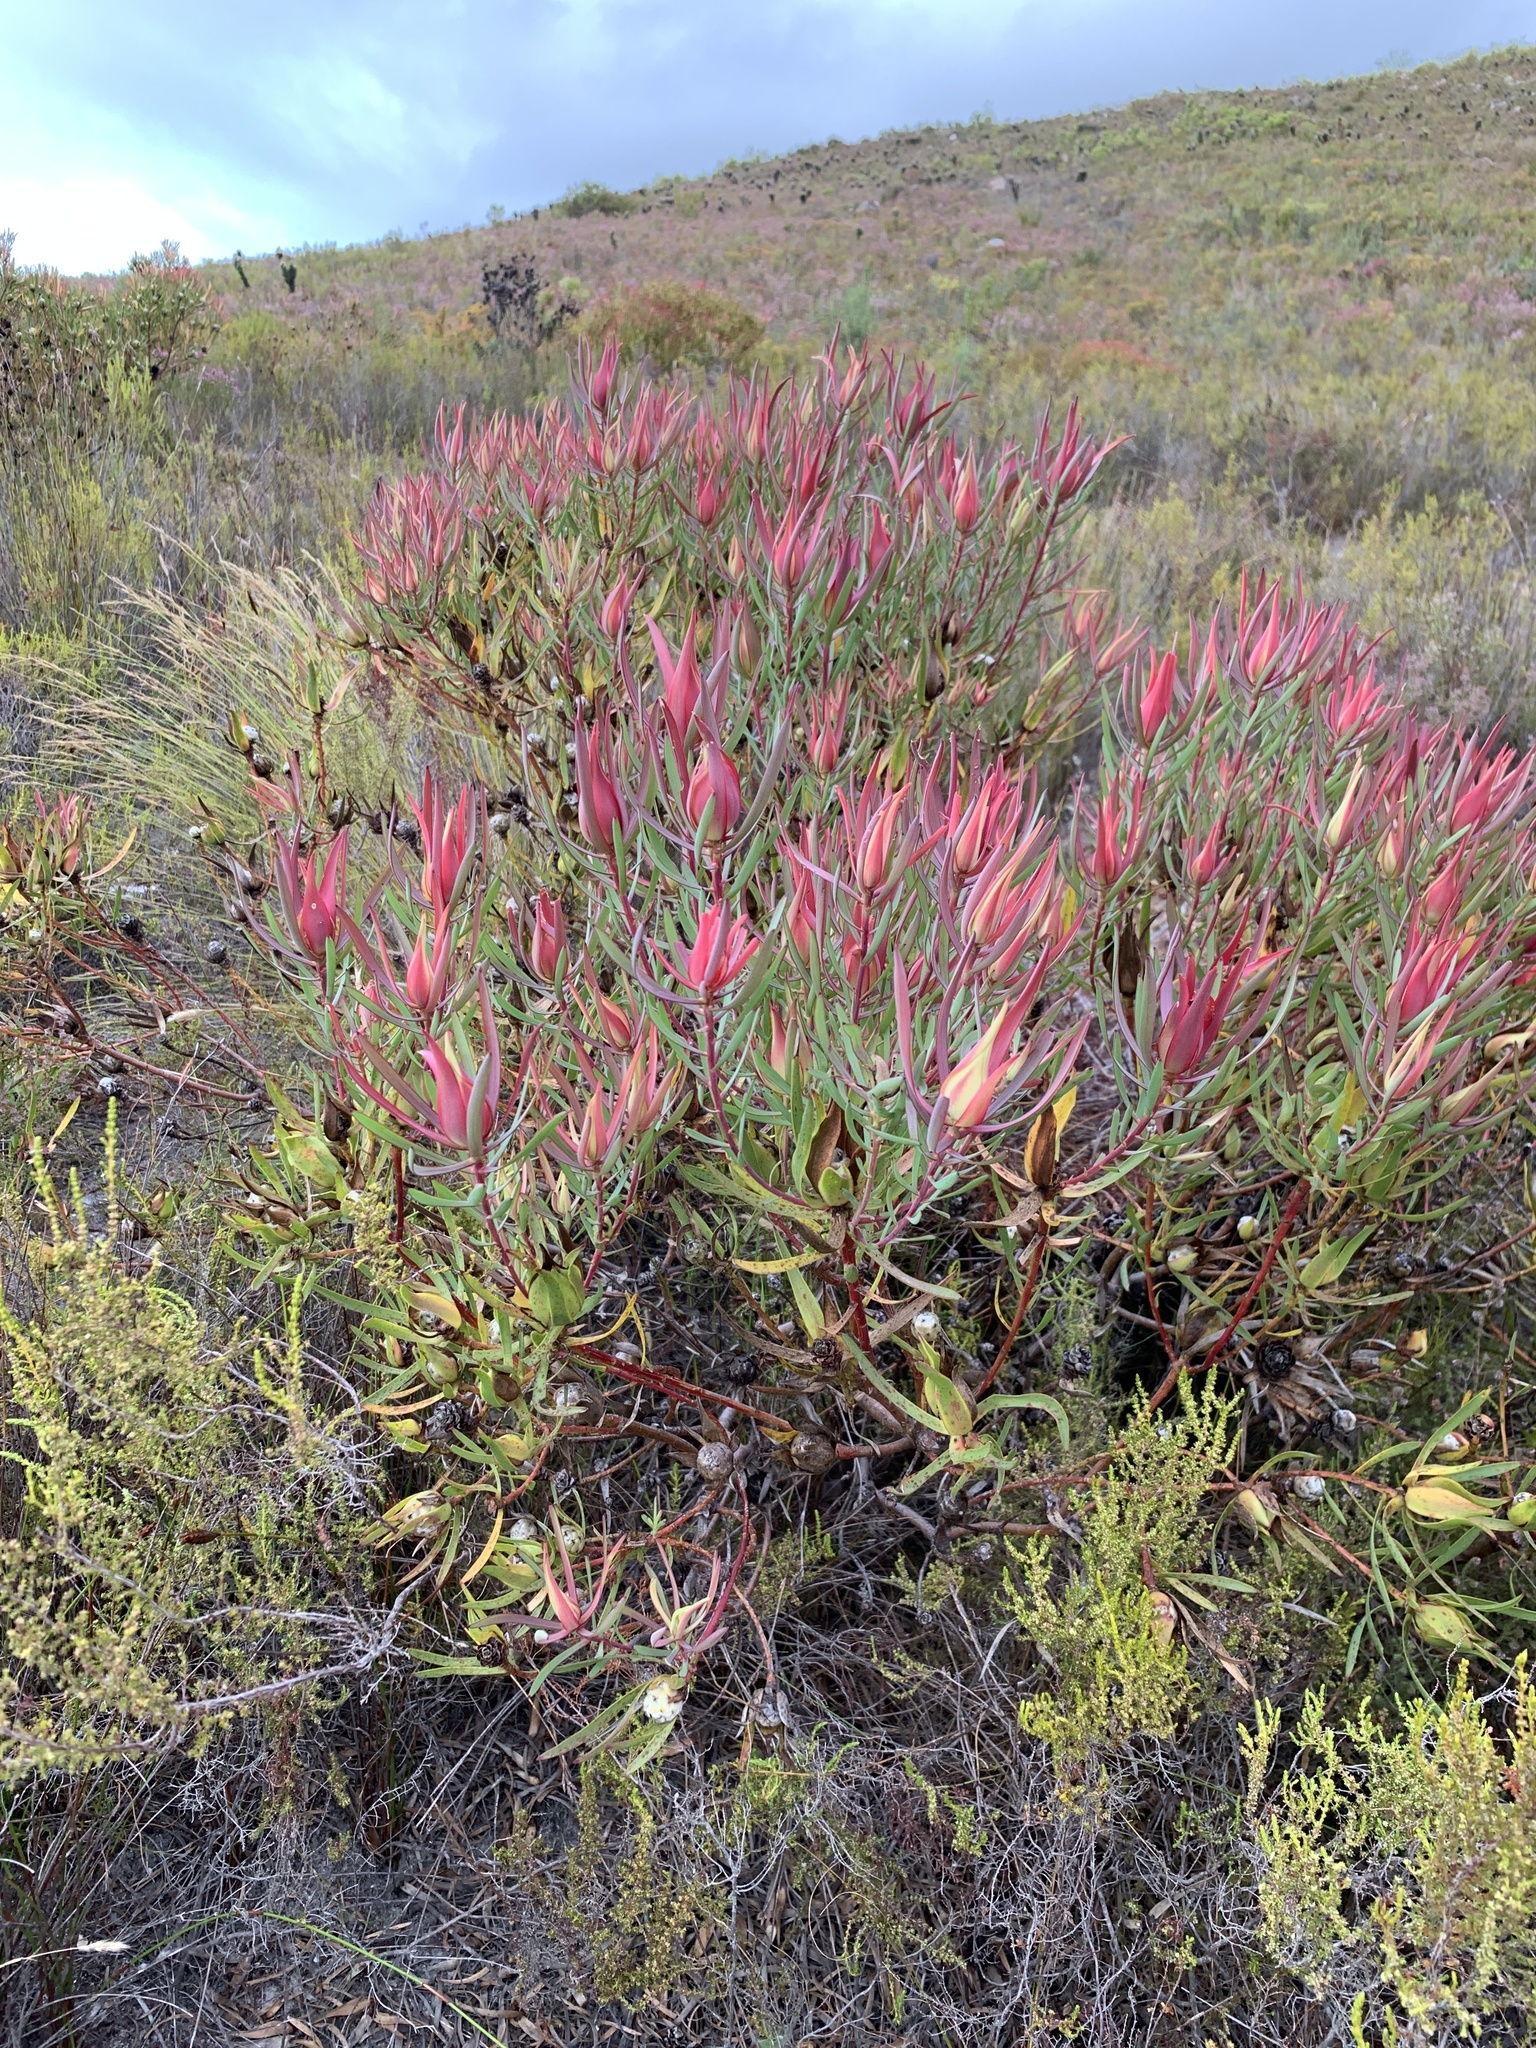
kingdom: Plantae
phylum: Tracheophyta
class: Magnoliopsida
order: Proteales
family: Proteaceae
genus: Leucadendron
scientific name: Leucadendron salignum
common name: Common sunshine conebush
